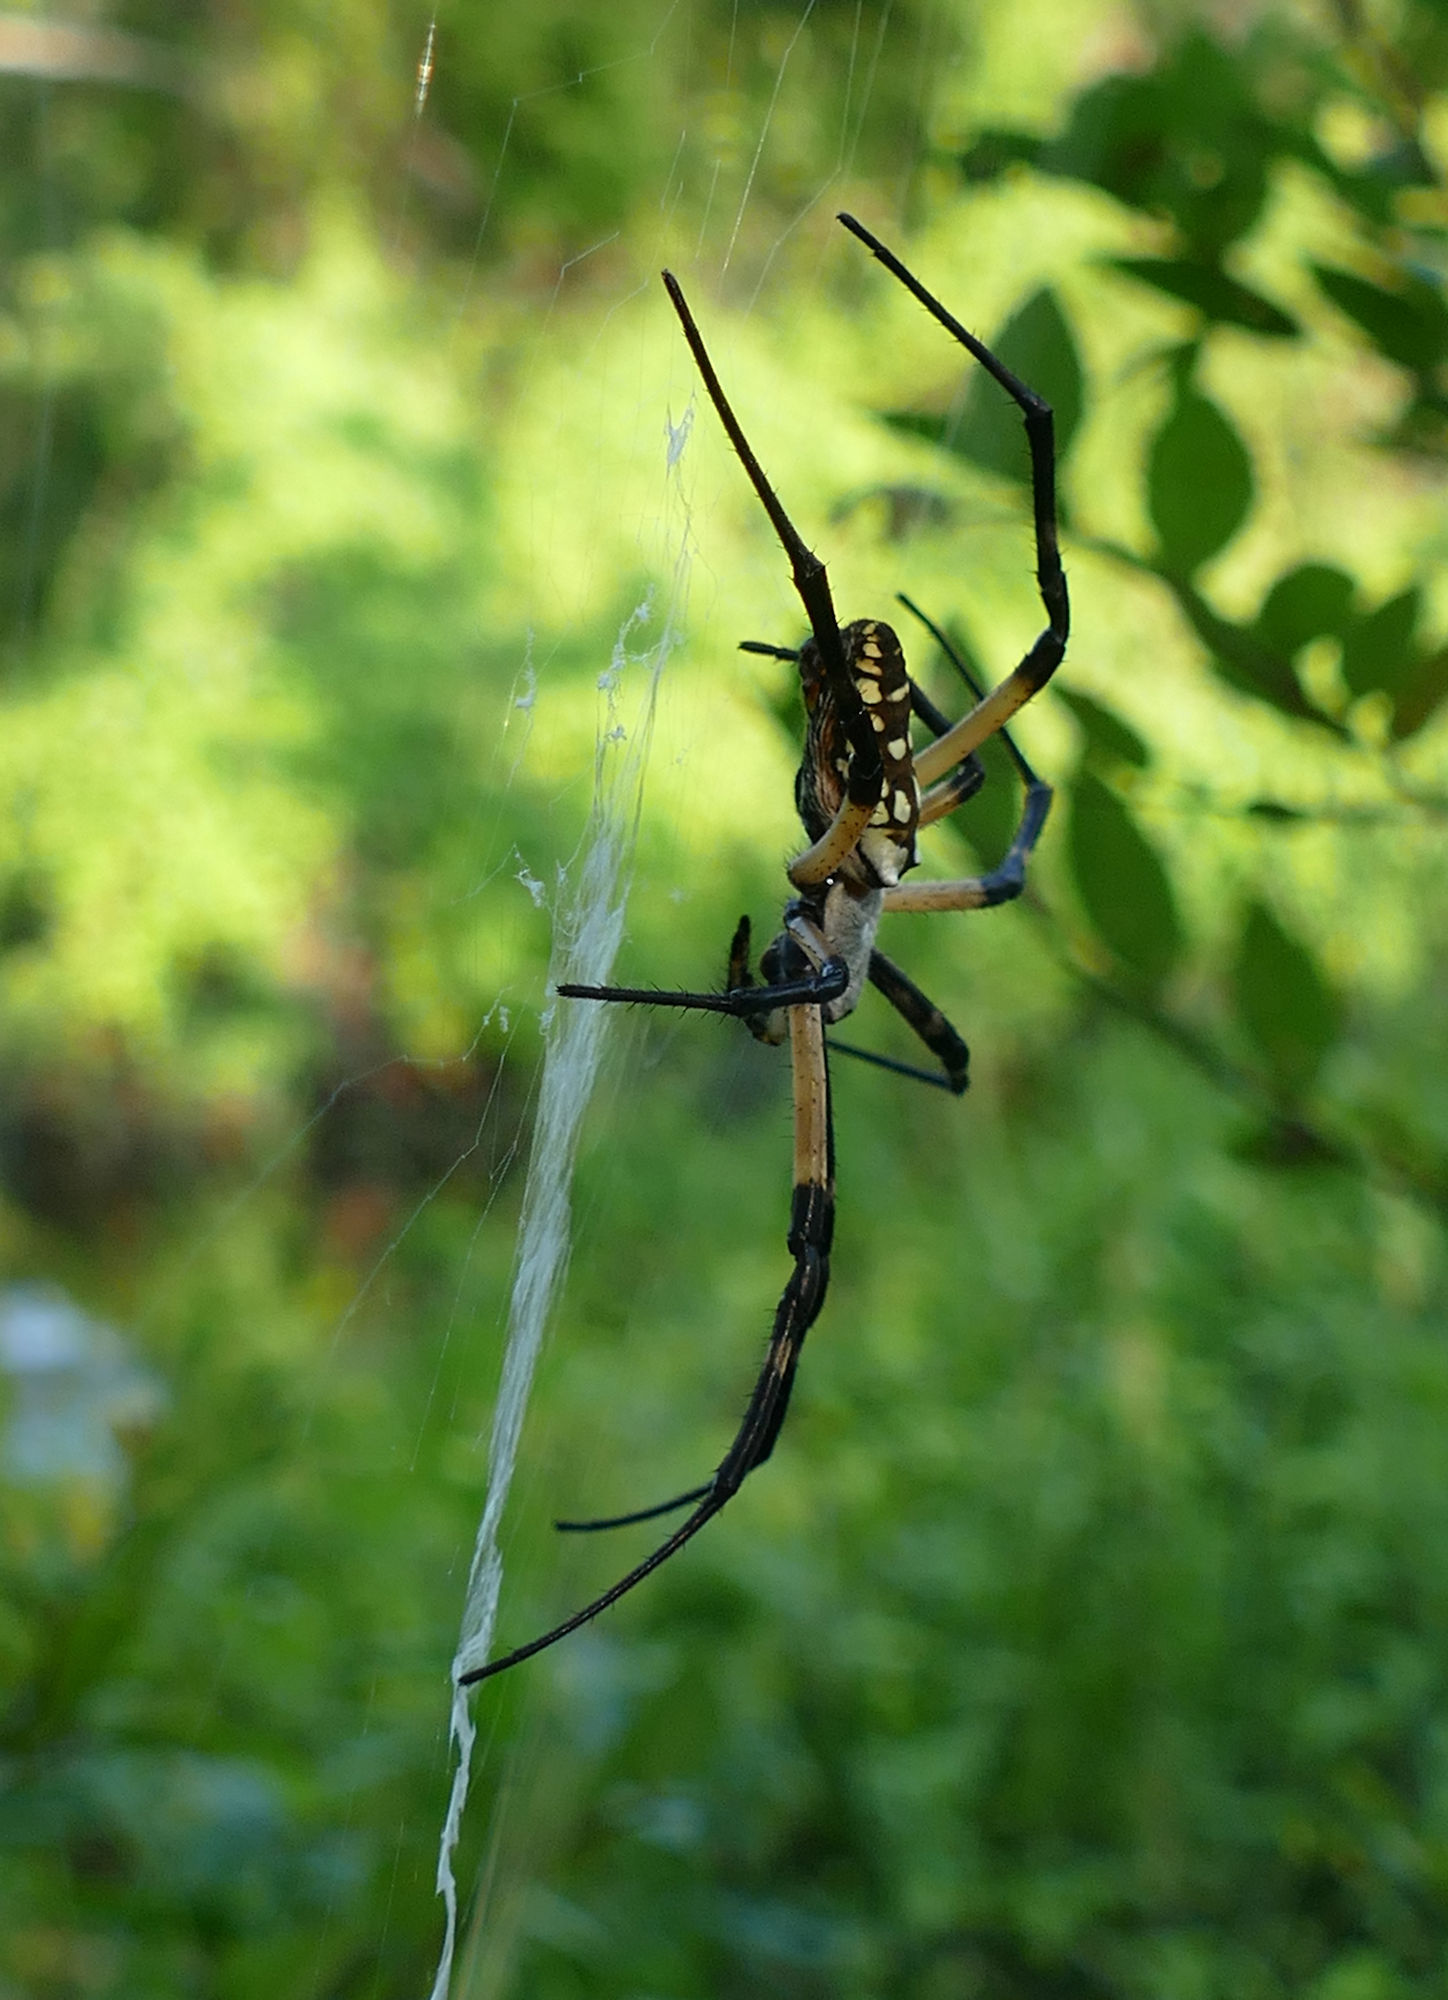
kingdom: Animalia
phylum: Arthropoda
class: Arachnida
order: Araneae
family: Araneidae
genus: Argiope
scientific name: Argiope aurantia
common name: Orb weavers
